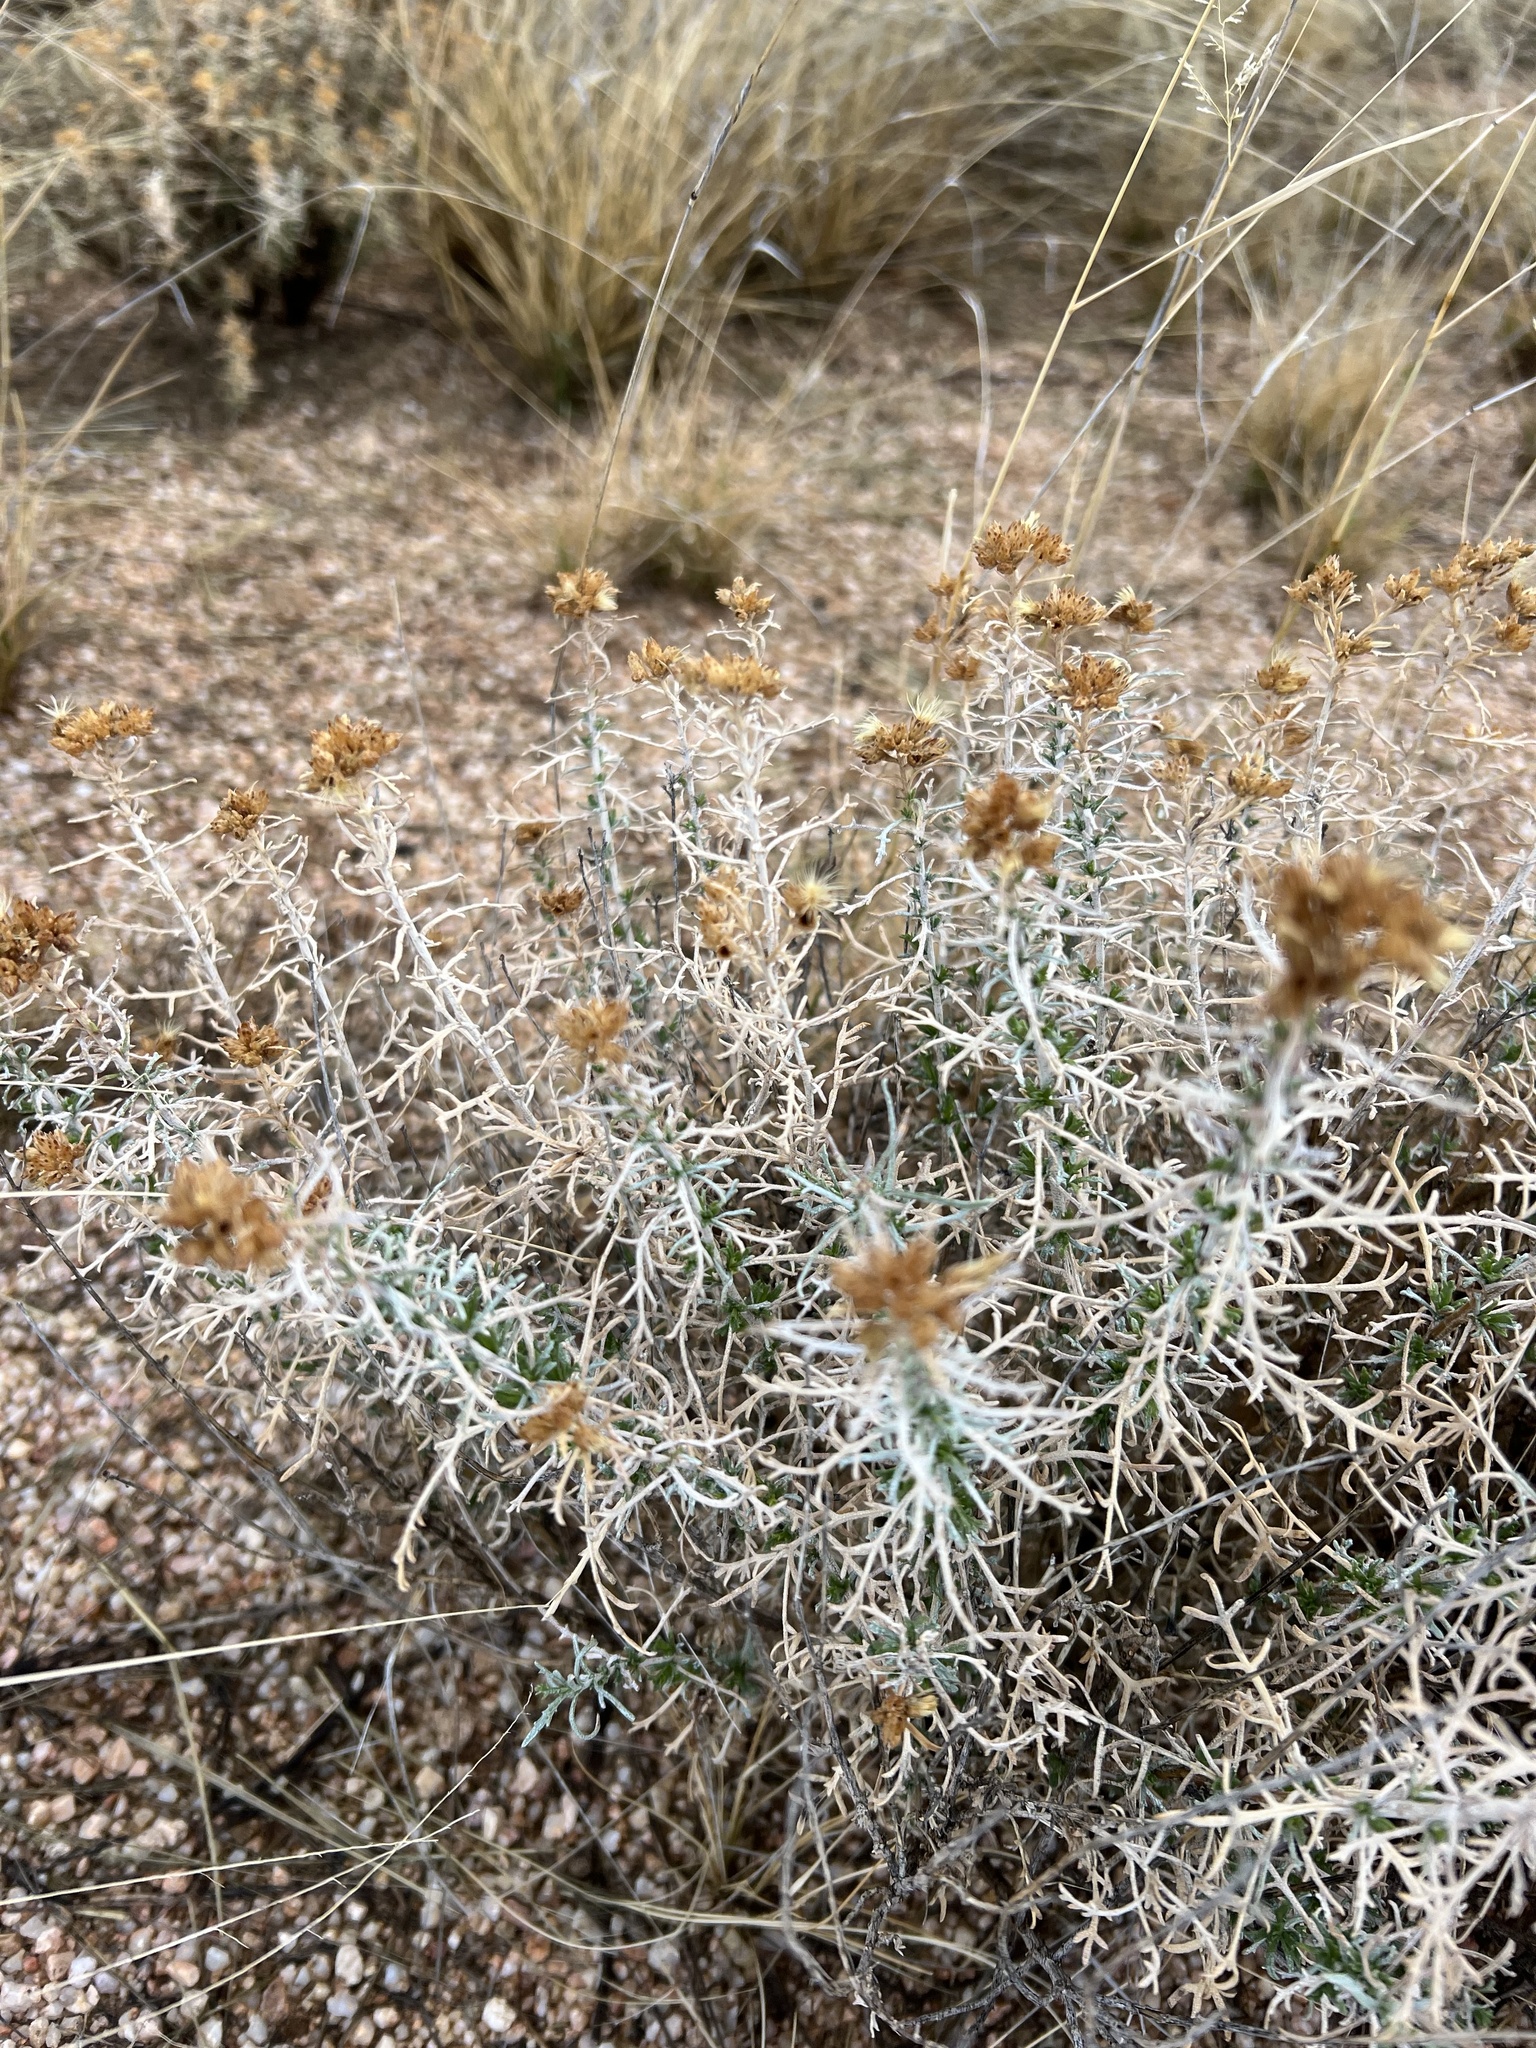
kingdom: Plantae
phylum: Tracheophyta
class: Magnoliopsida
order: Asterales
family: Asteraceae
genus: Isocoma
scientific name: Isocoma tenuisecta
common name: Burroweed
